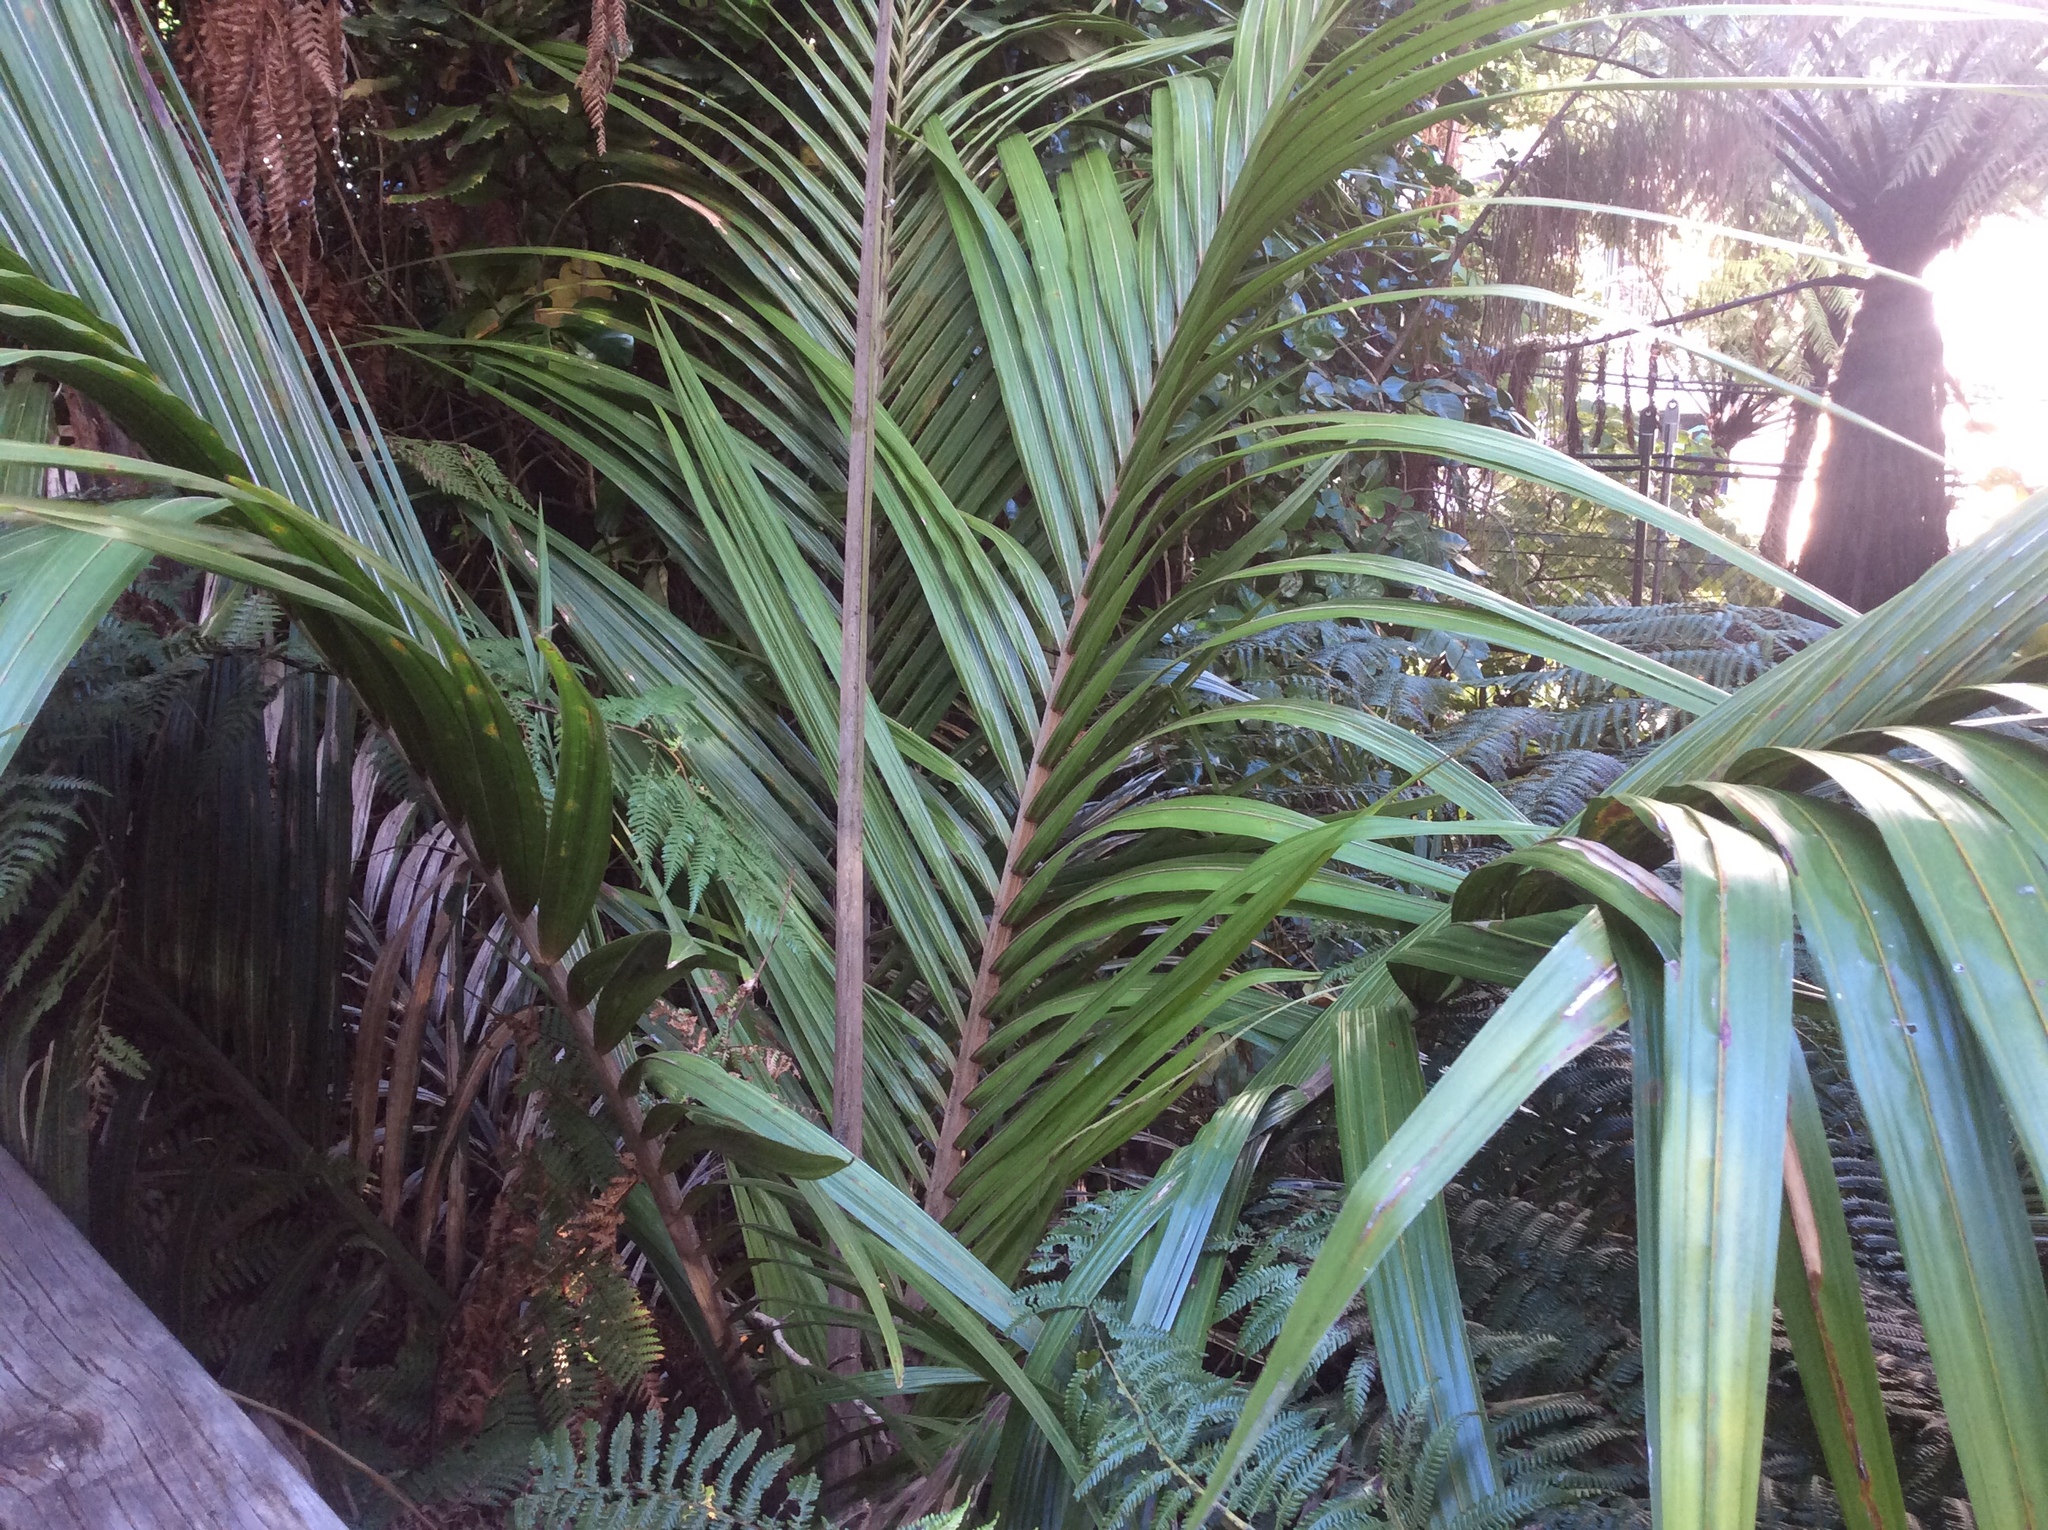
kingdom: Plantae
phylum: Tracheophyta
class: Liliopsida
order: Arecales
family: Arecaceae
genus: Rhopalostylis
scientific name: Rhopalostylis sapida
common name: Feather-duster palm
